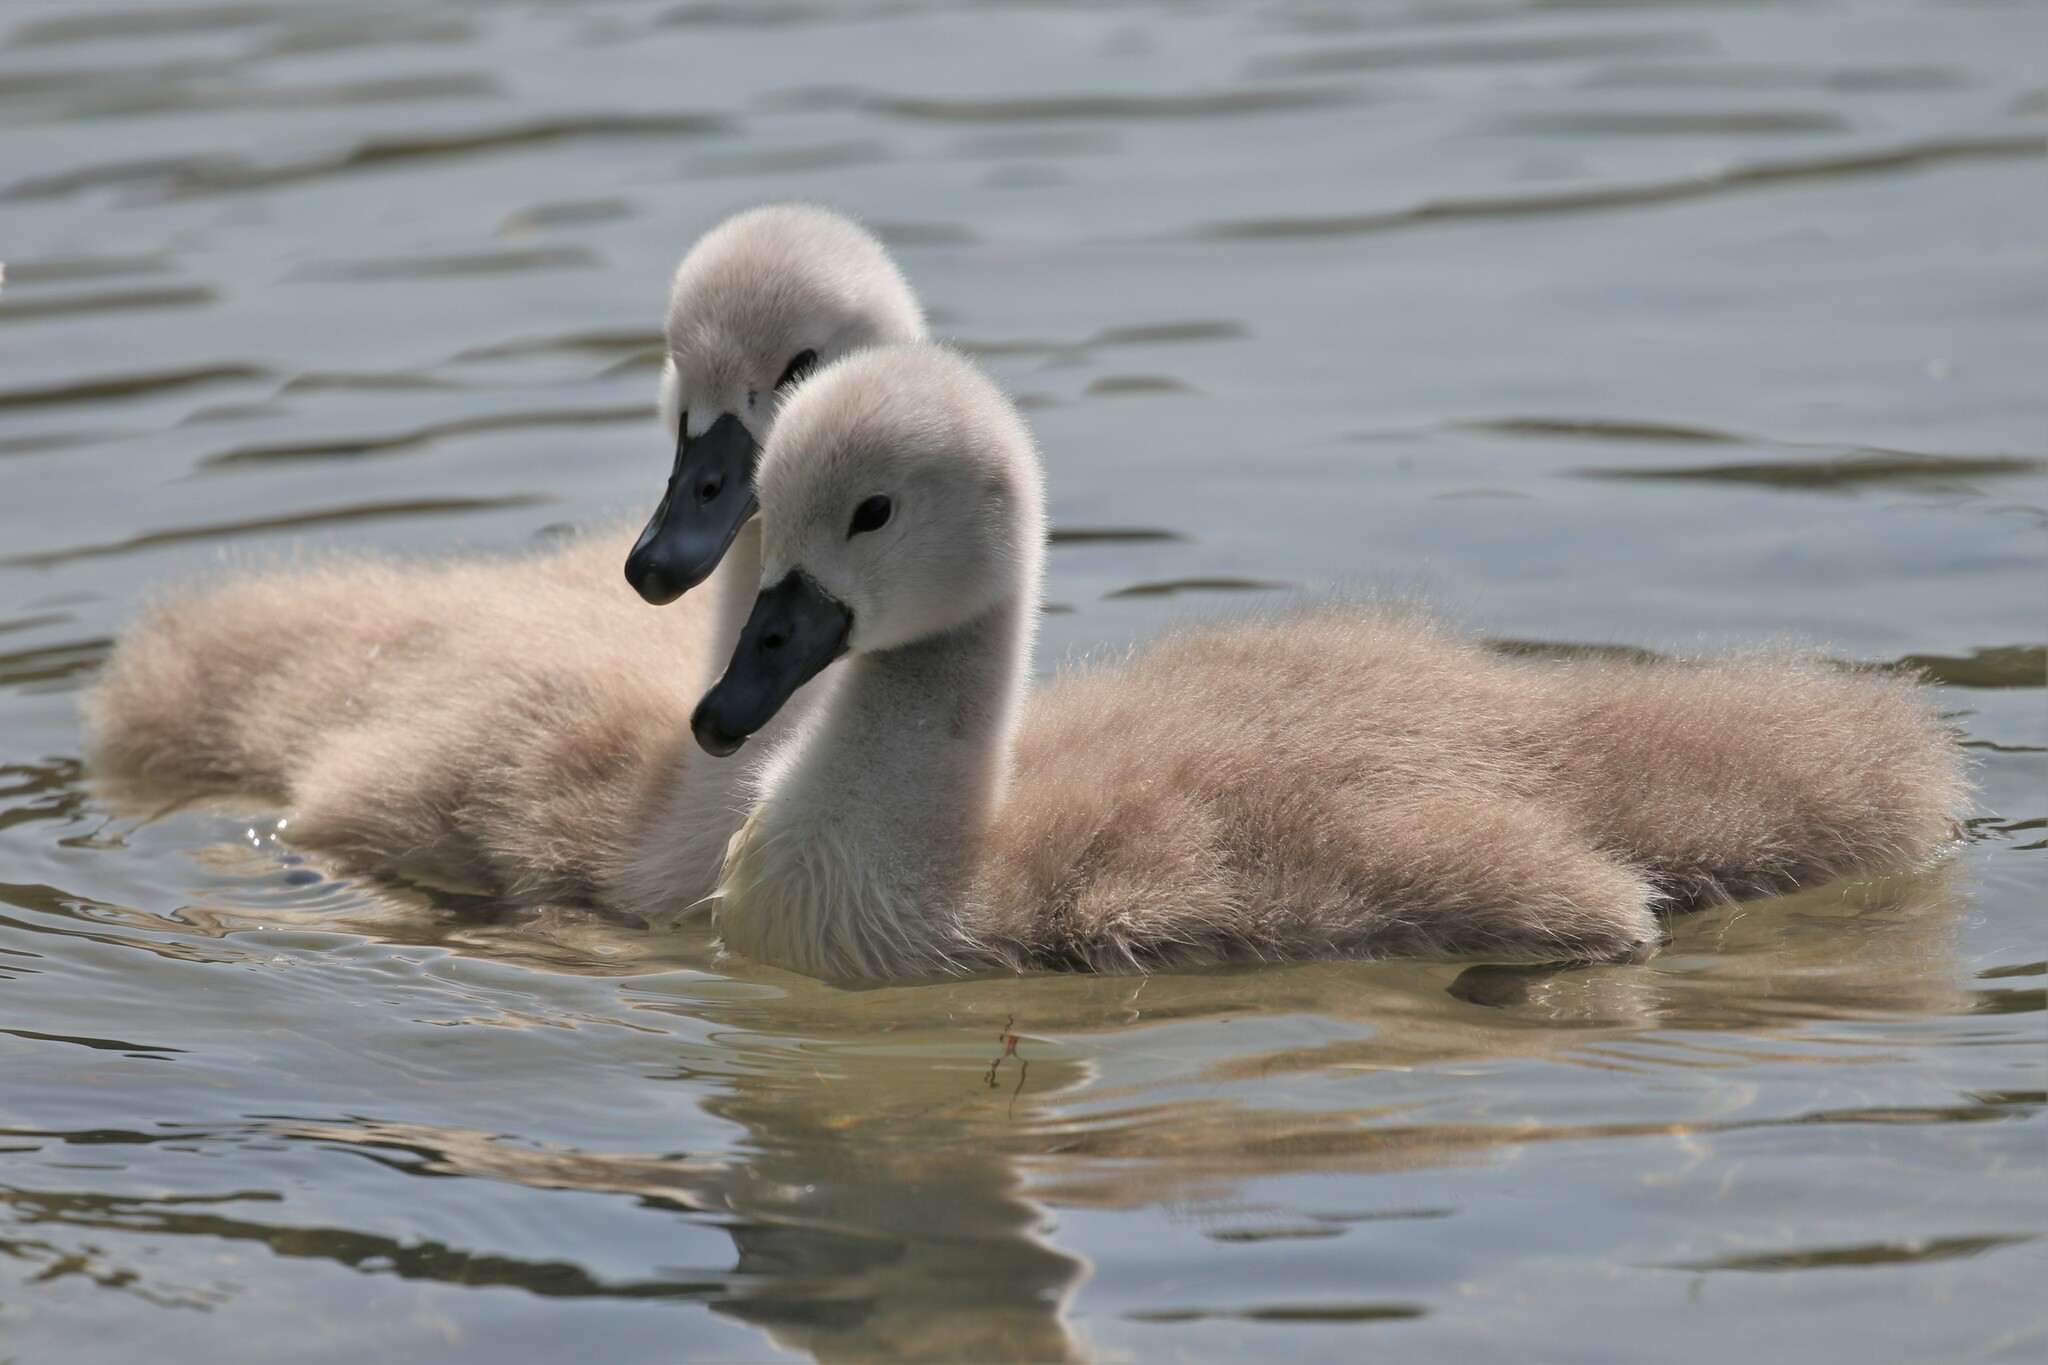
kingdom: Animalia
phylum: Chordata
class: Aves
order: Anseriformes
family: Anatidae
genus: Cygnus
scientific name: Cygnus olor
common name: Mute swan
